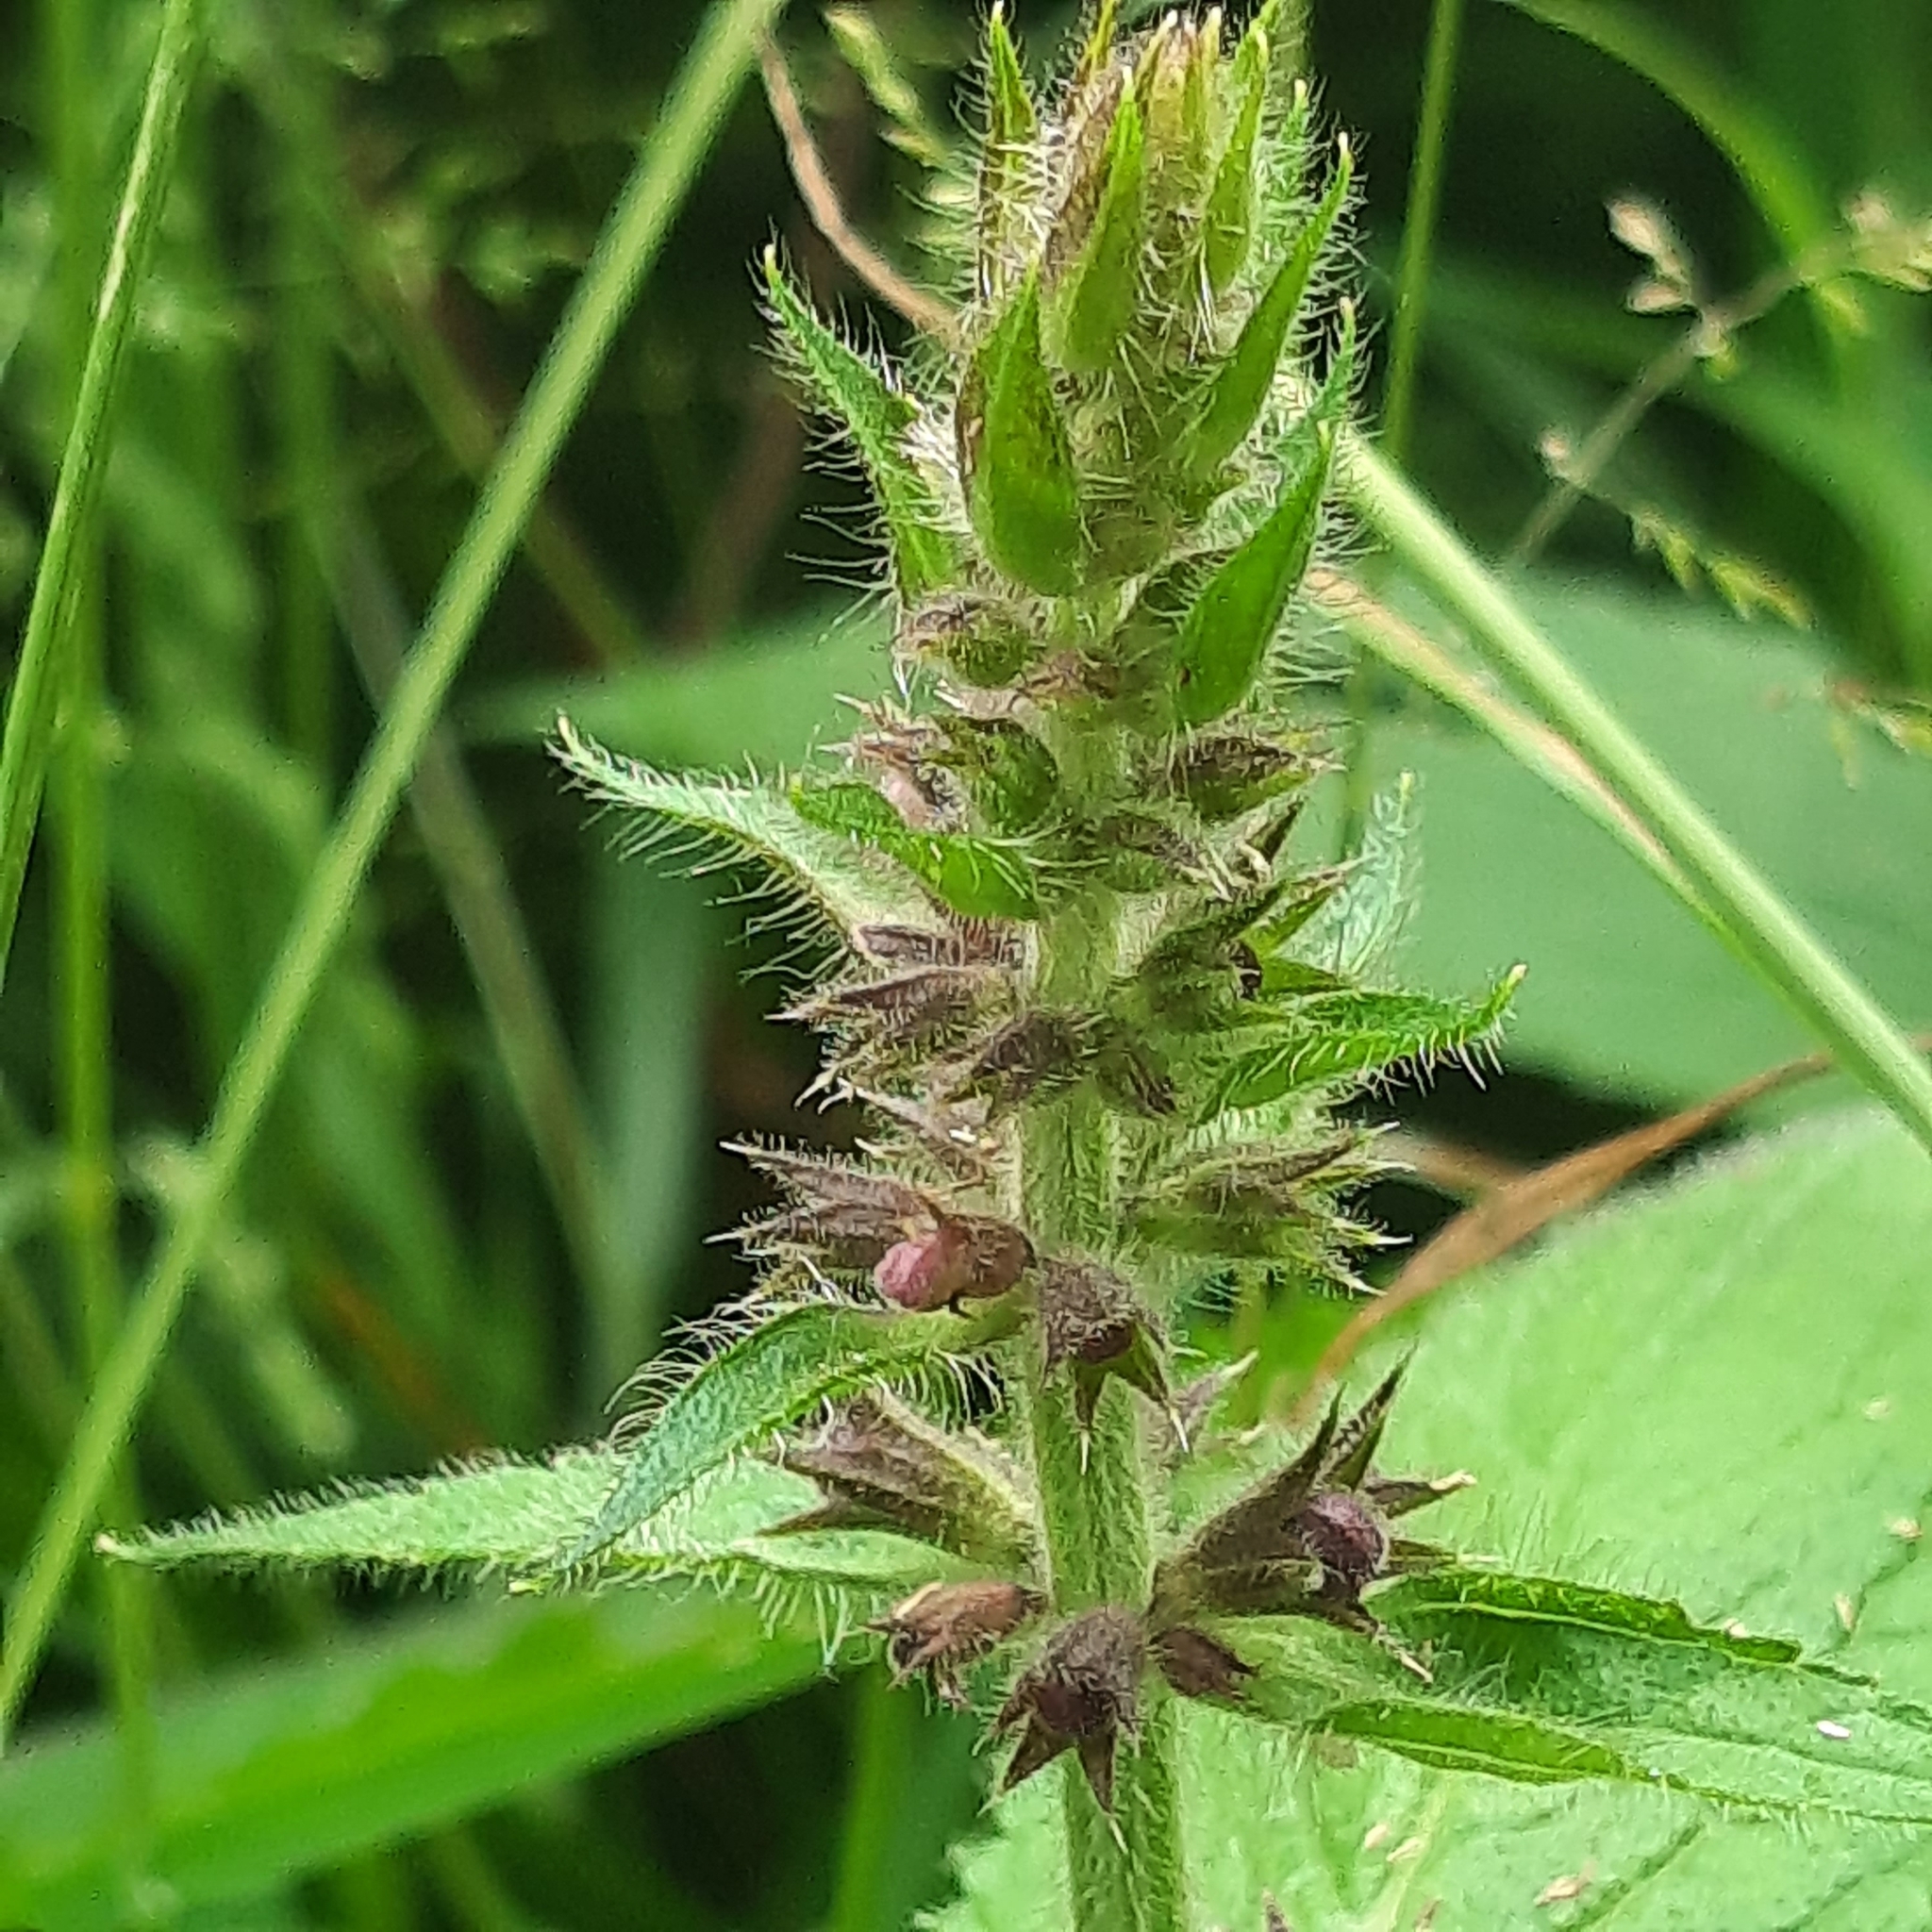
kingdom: Plantae
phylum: Tracheophyta
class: Magnoliopsida
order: Lamiales
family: Lamiaceae
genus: Stachys
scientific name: Stachys sylvatica
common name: Hedge woundwort
